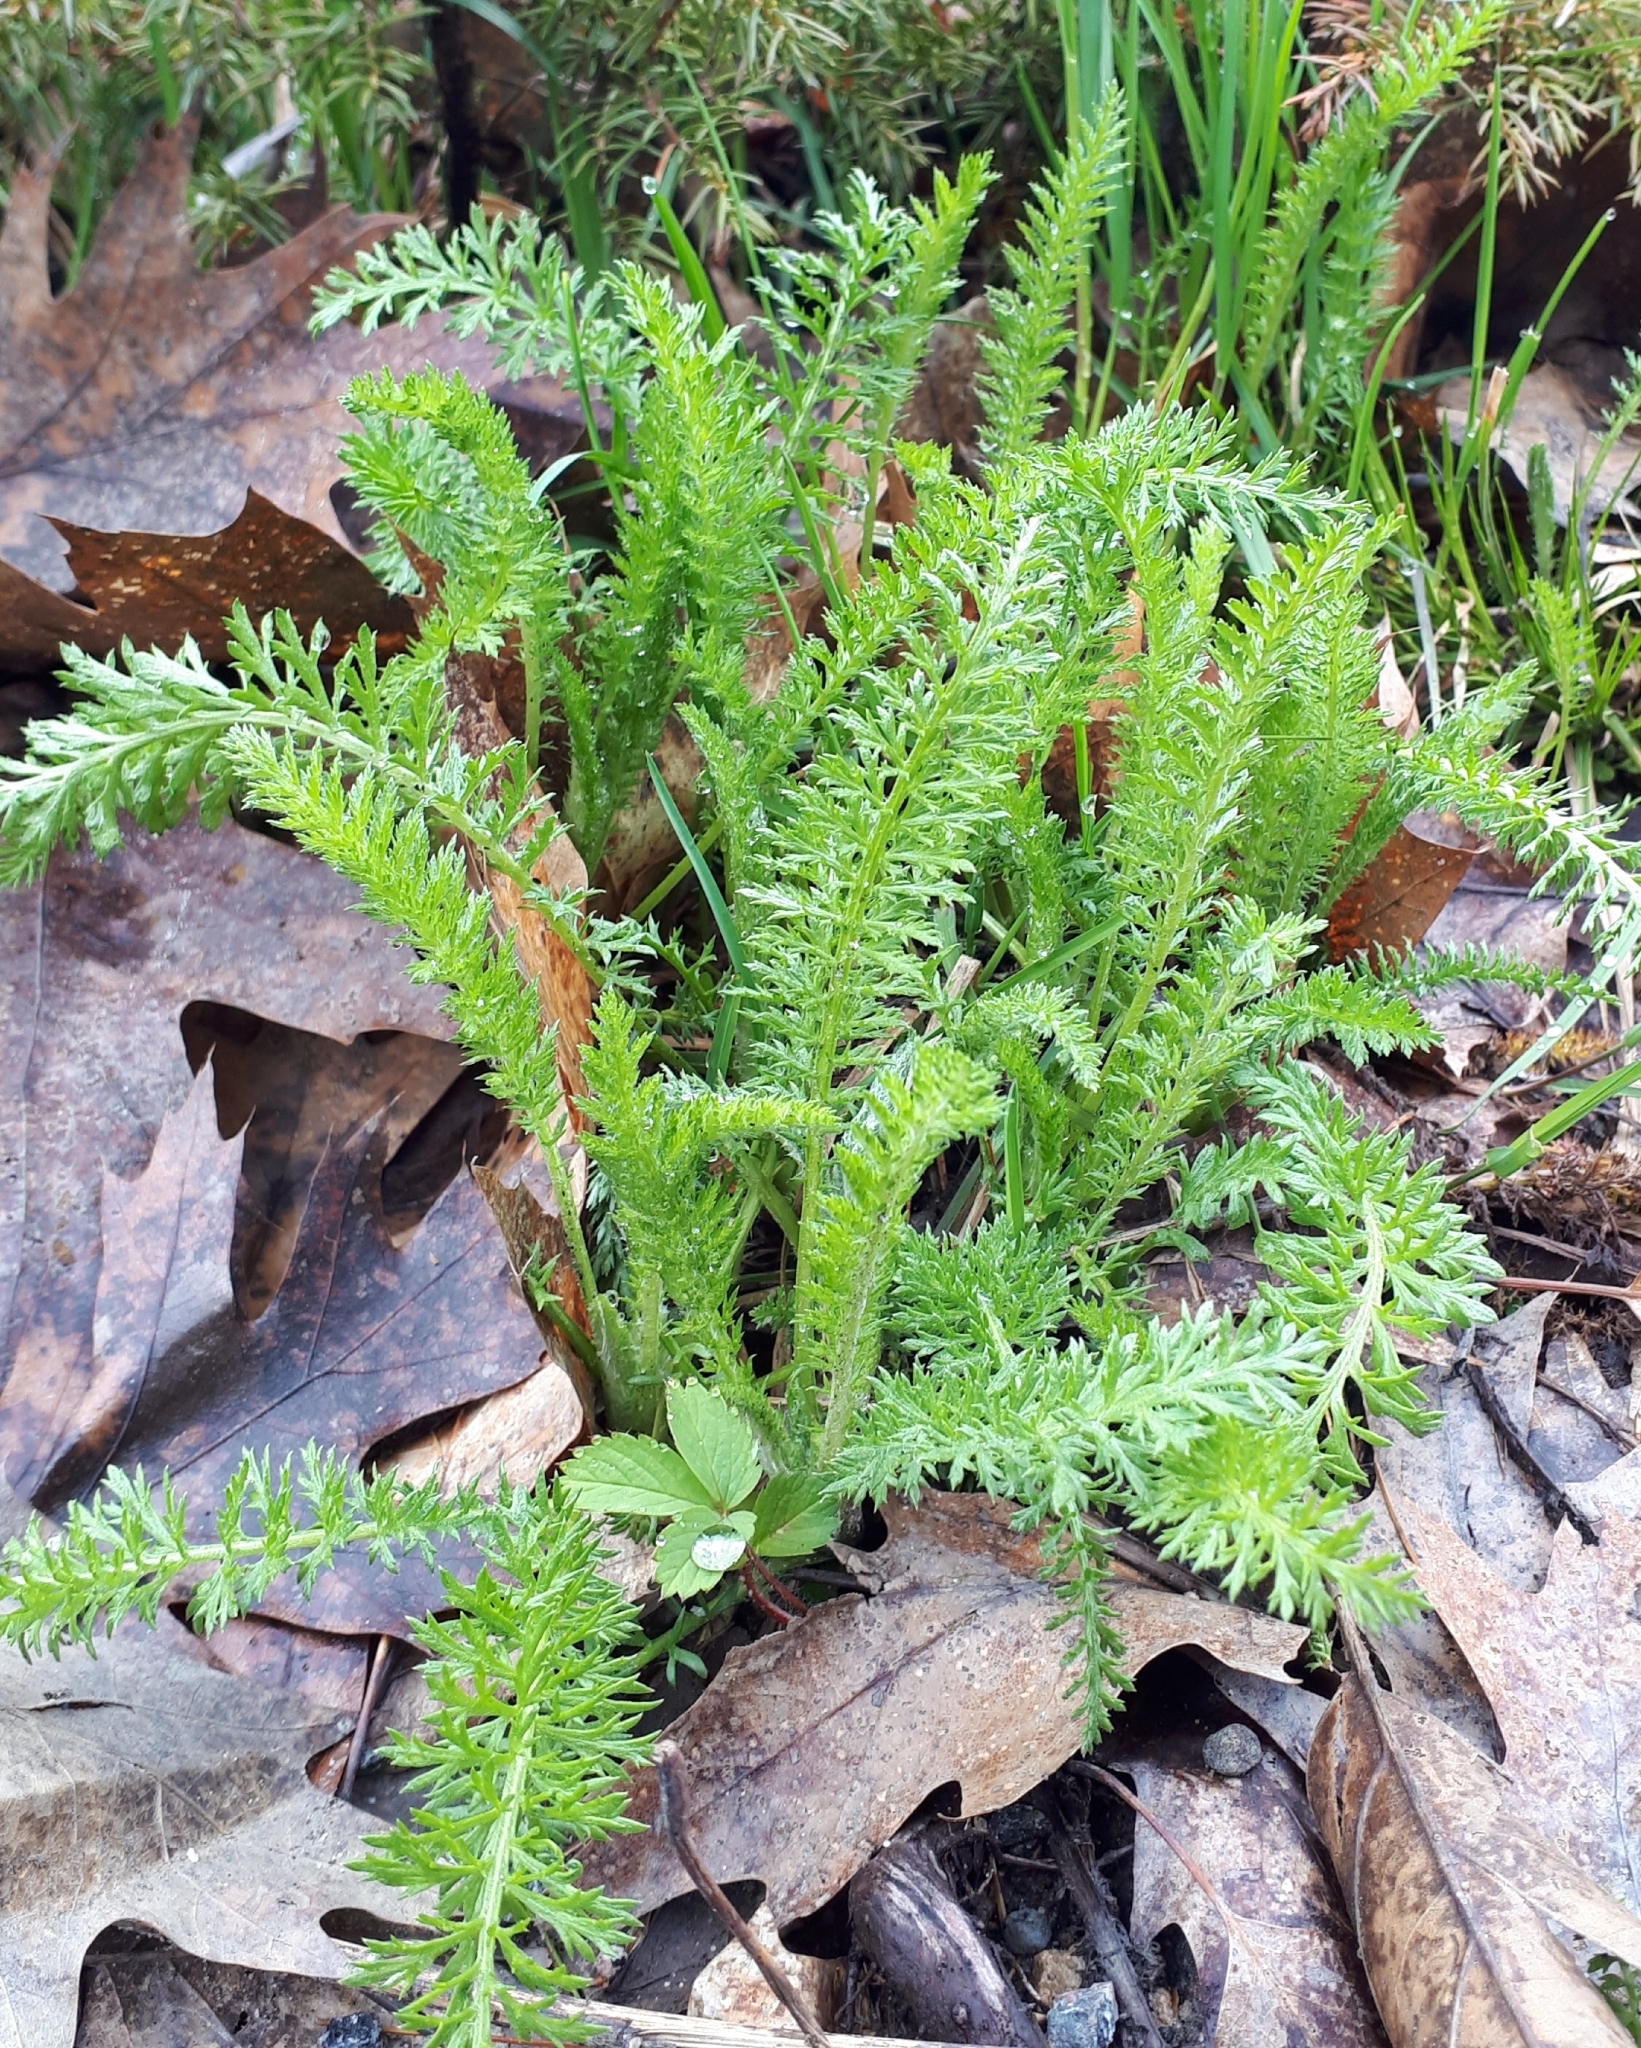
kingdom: Plantae
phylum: Tracheophyta
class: Magnoliopsida
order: Asterales
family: Asteraceae
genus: Achillea
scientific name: Achillea millefolium
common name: Yarrow
